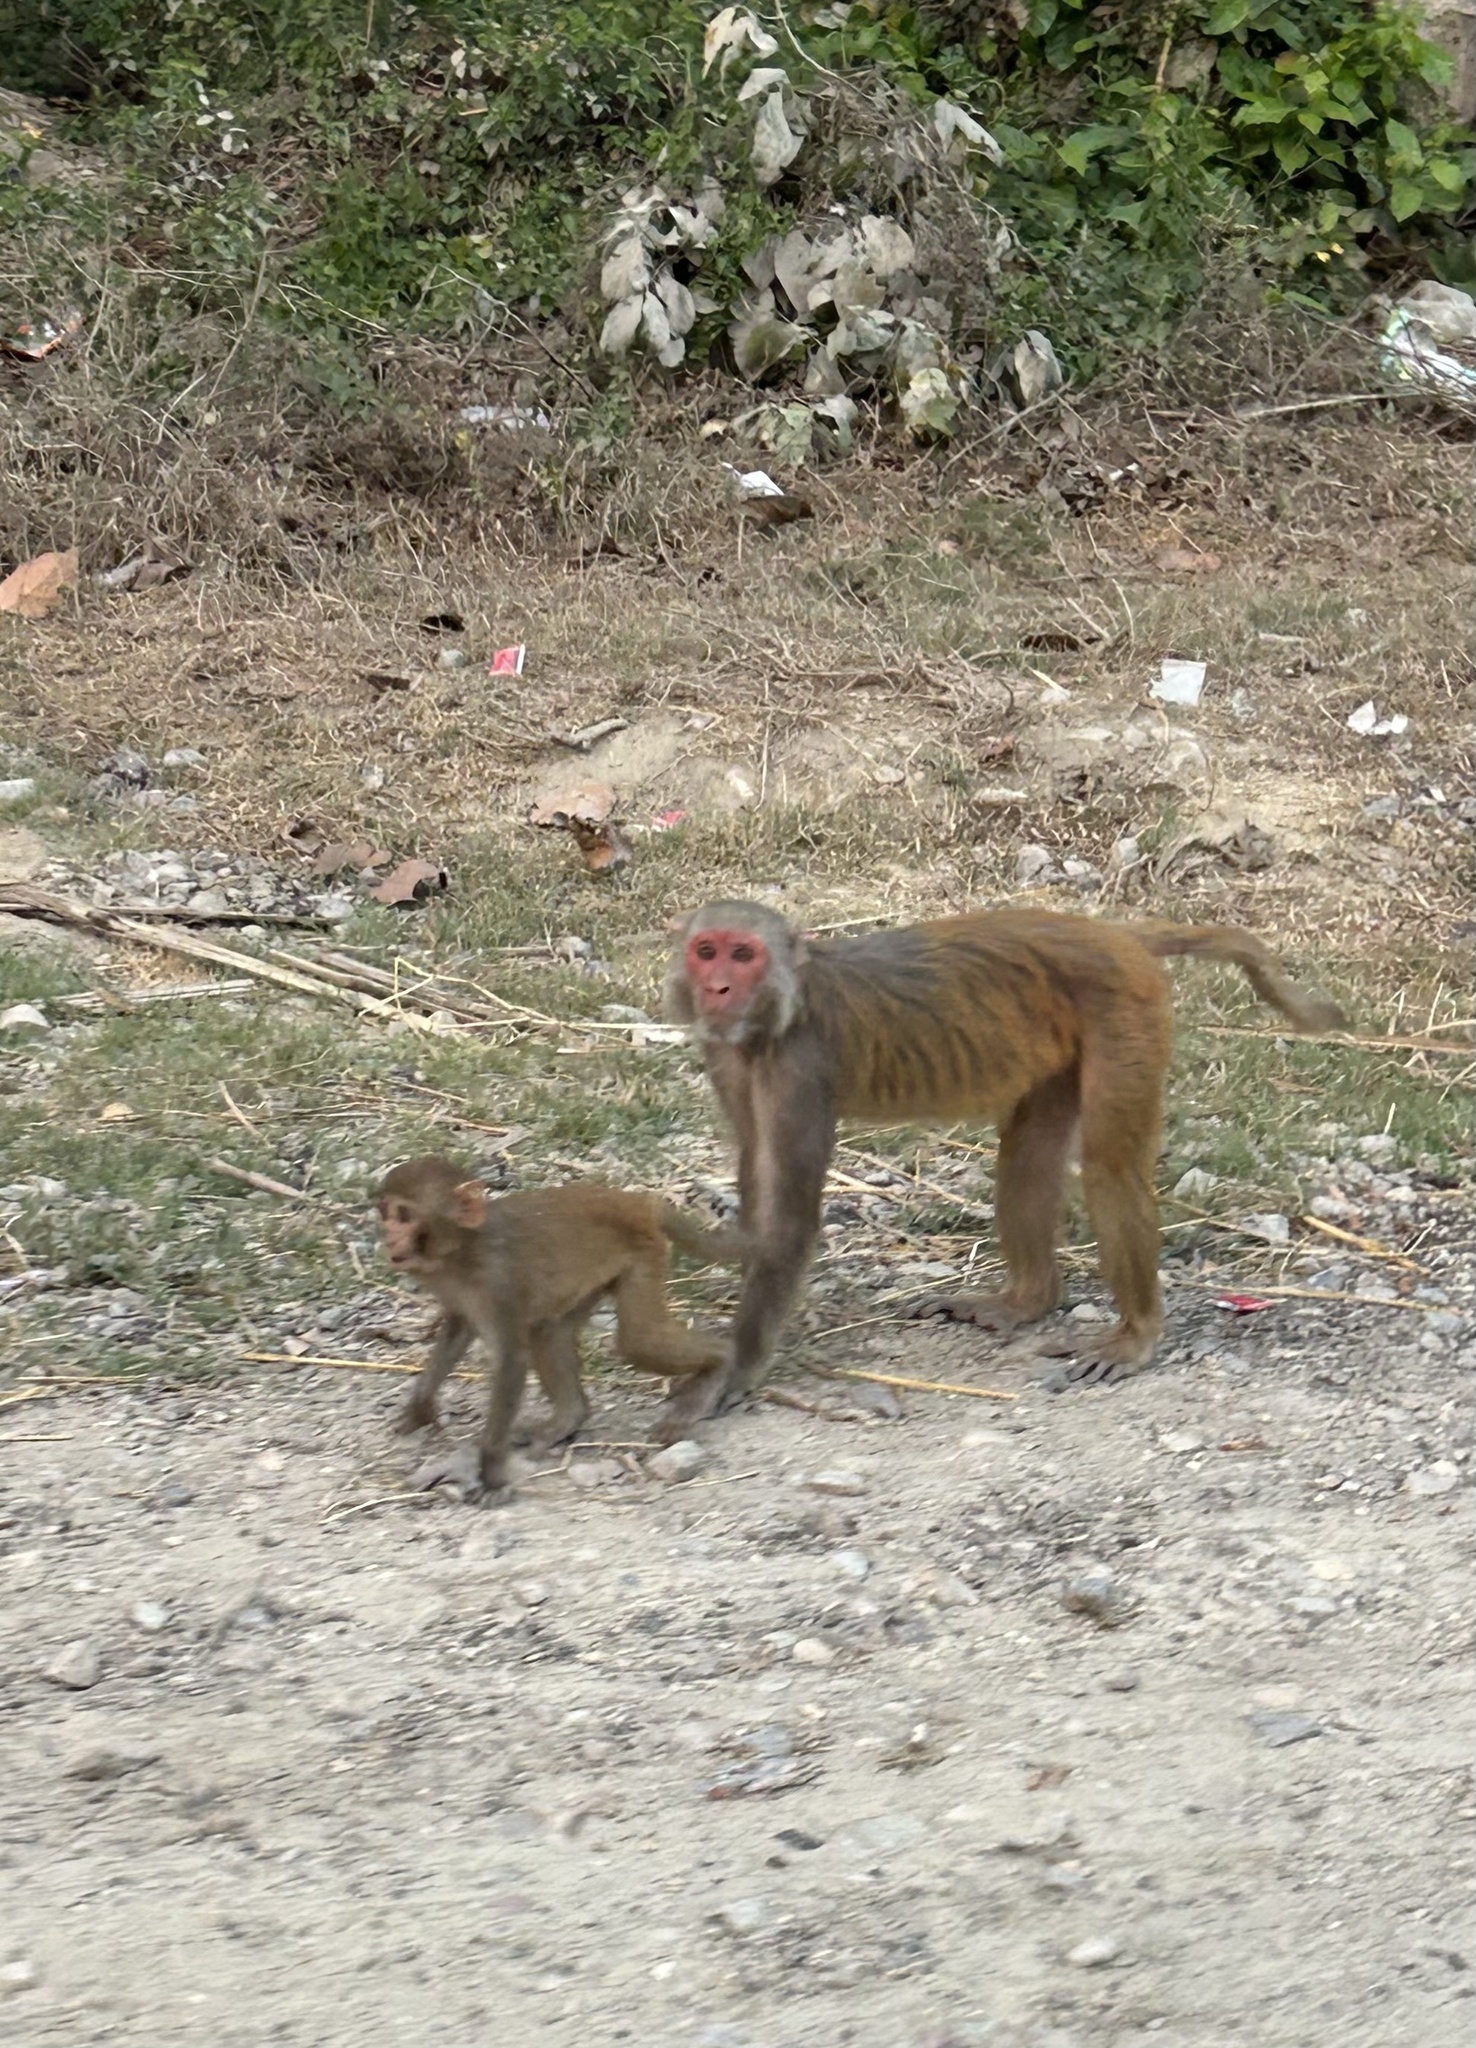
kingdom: Animalia
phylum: Chordata
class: Mammalia
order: Primates
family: Cercopithecidae
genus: Macaca
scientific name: Macaca mulatta
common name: Rhesus monkey
